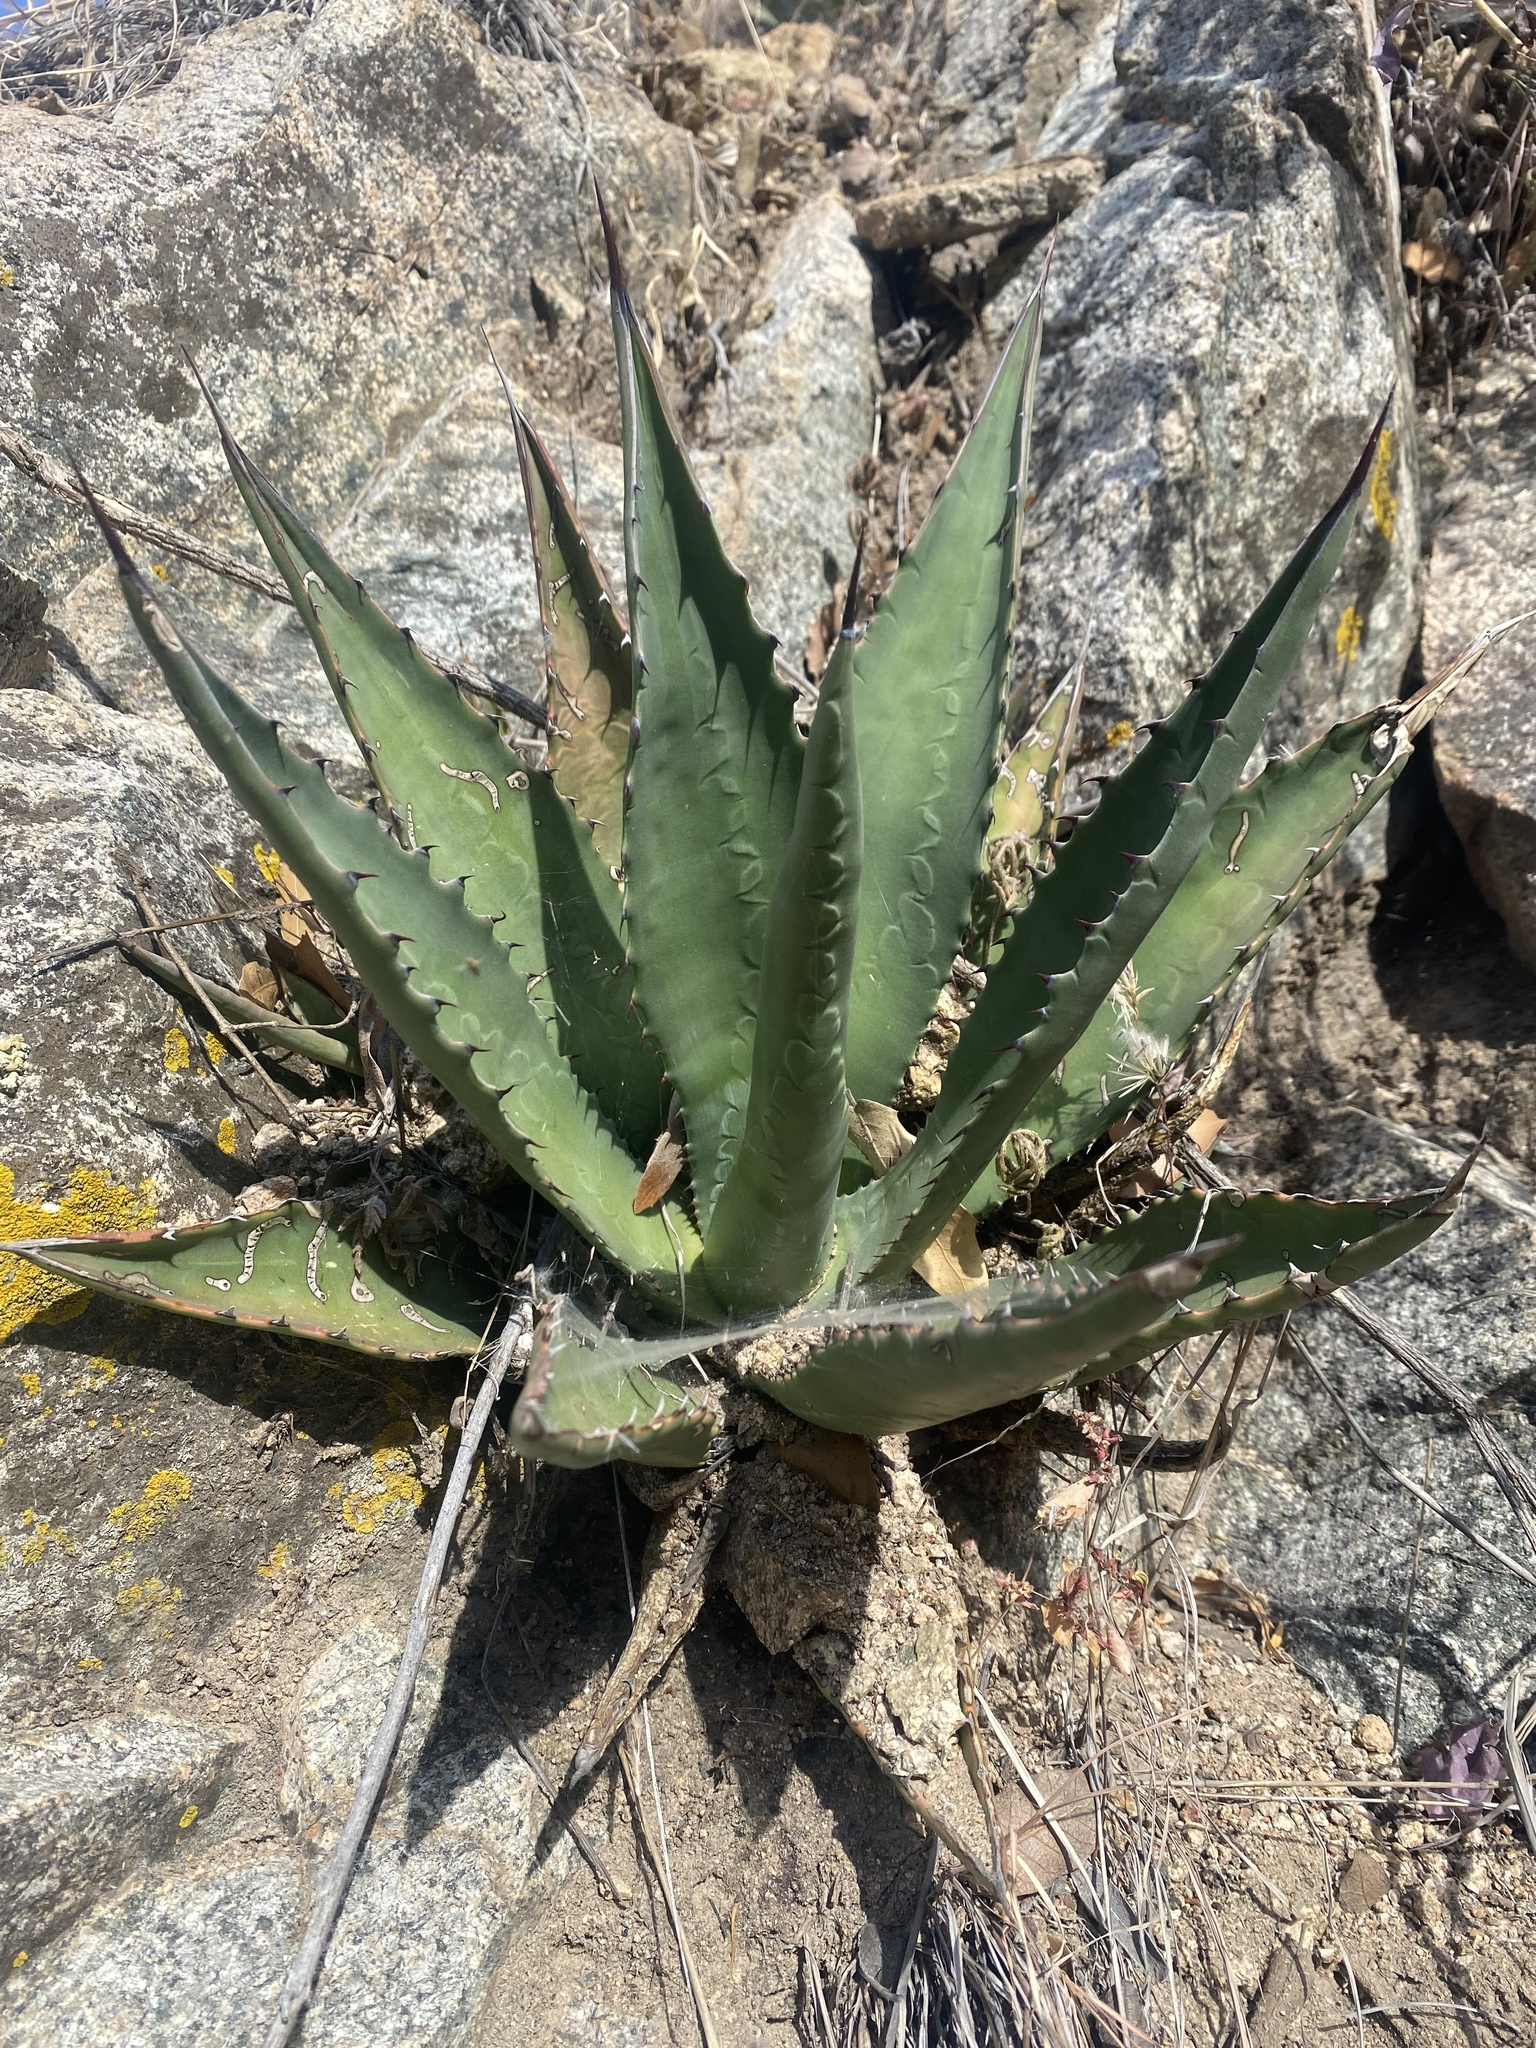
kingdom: Plantae
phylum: Tracheophyta
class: Liliopsida
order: Asparagales
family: Asparagaceae
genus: Agave
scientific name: Agave palmeri
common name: Palmer agave
